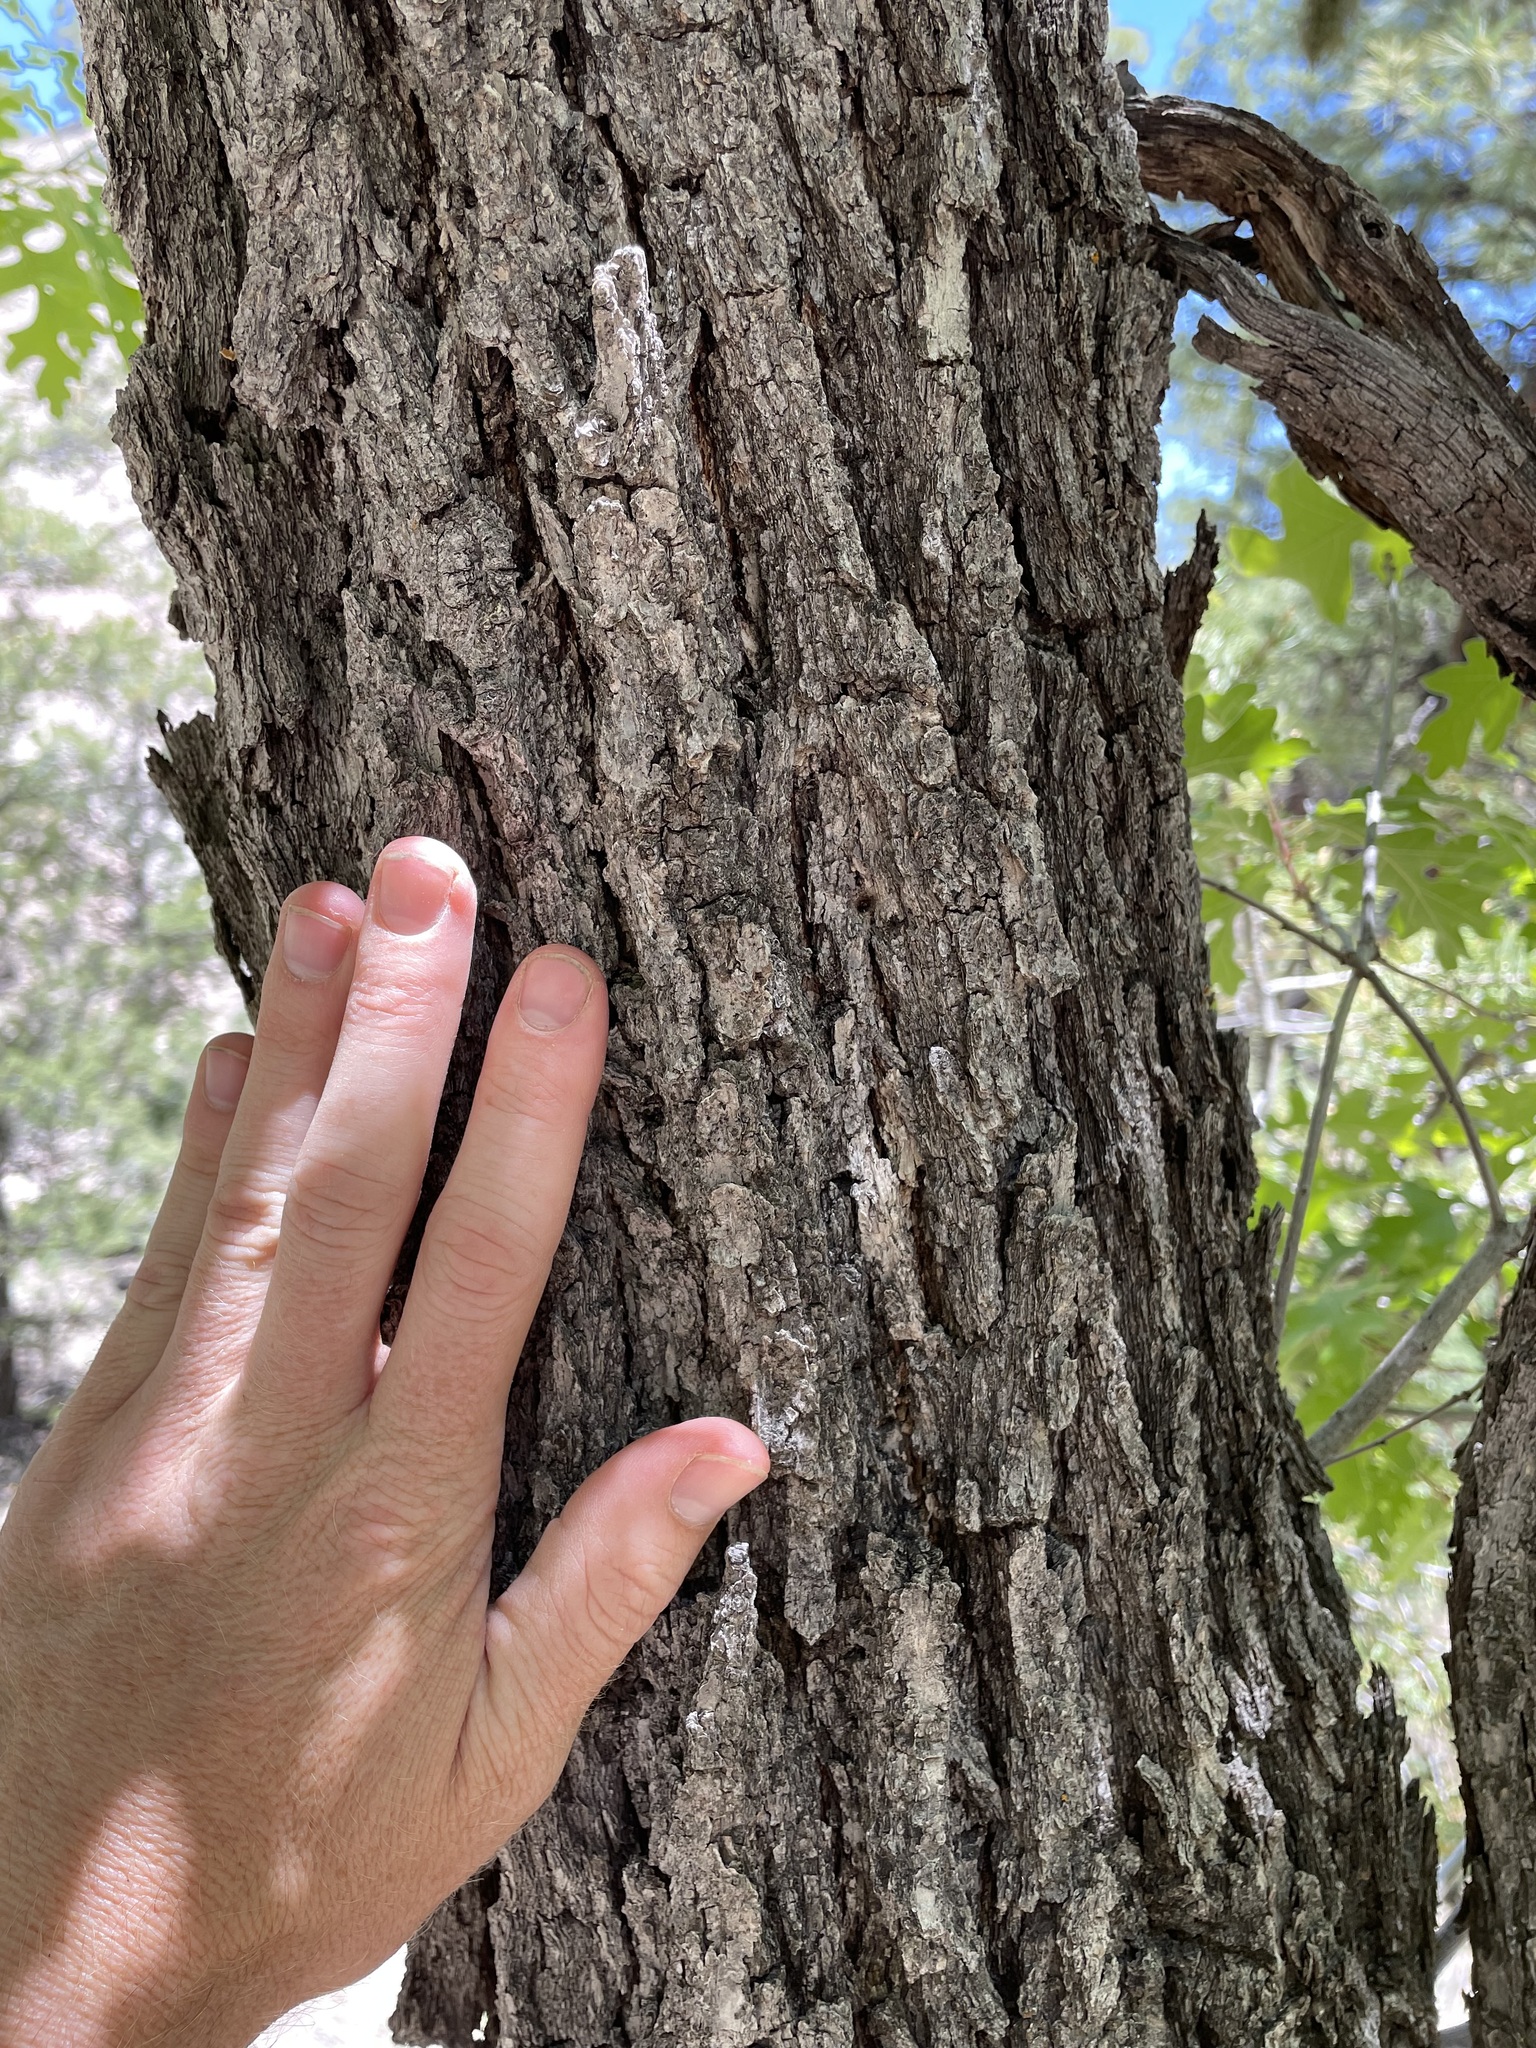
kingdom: Plantae
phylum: Tracheophyta
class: Magnoliopsida
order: Fagales
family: Fagaceae
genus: Quercus
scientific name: Quercus gambelii
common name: Gambel oak
